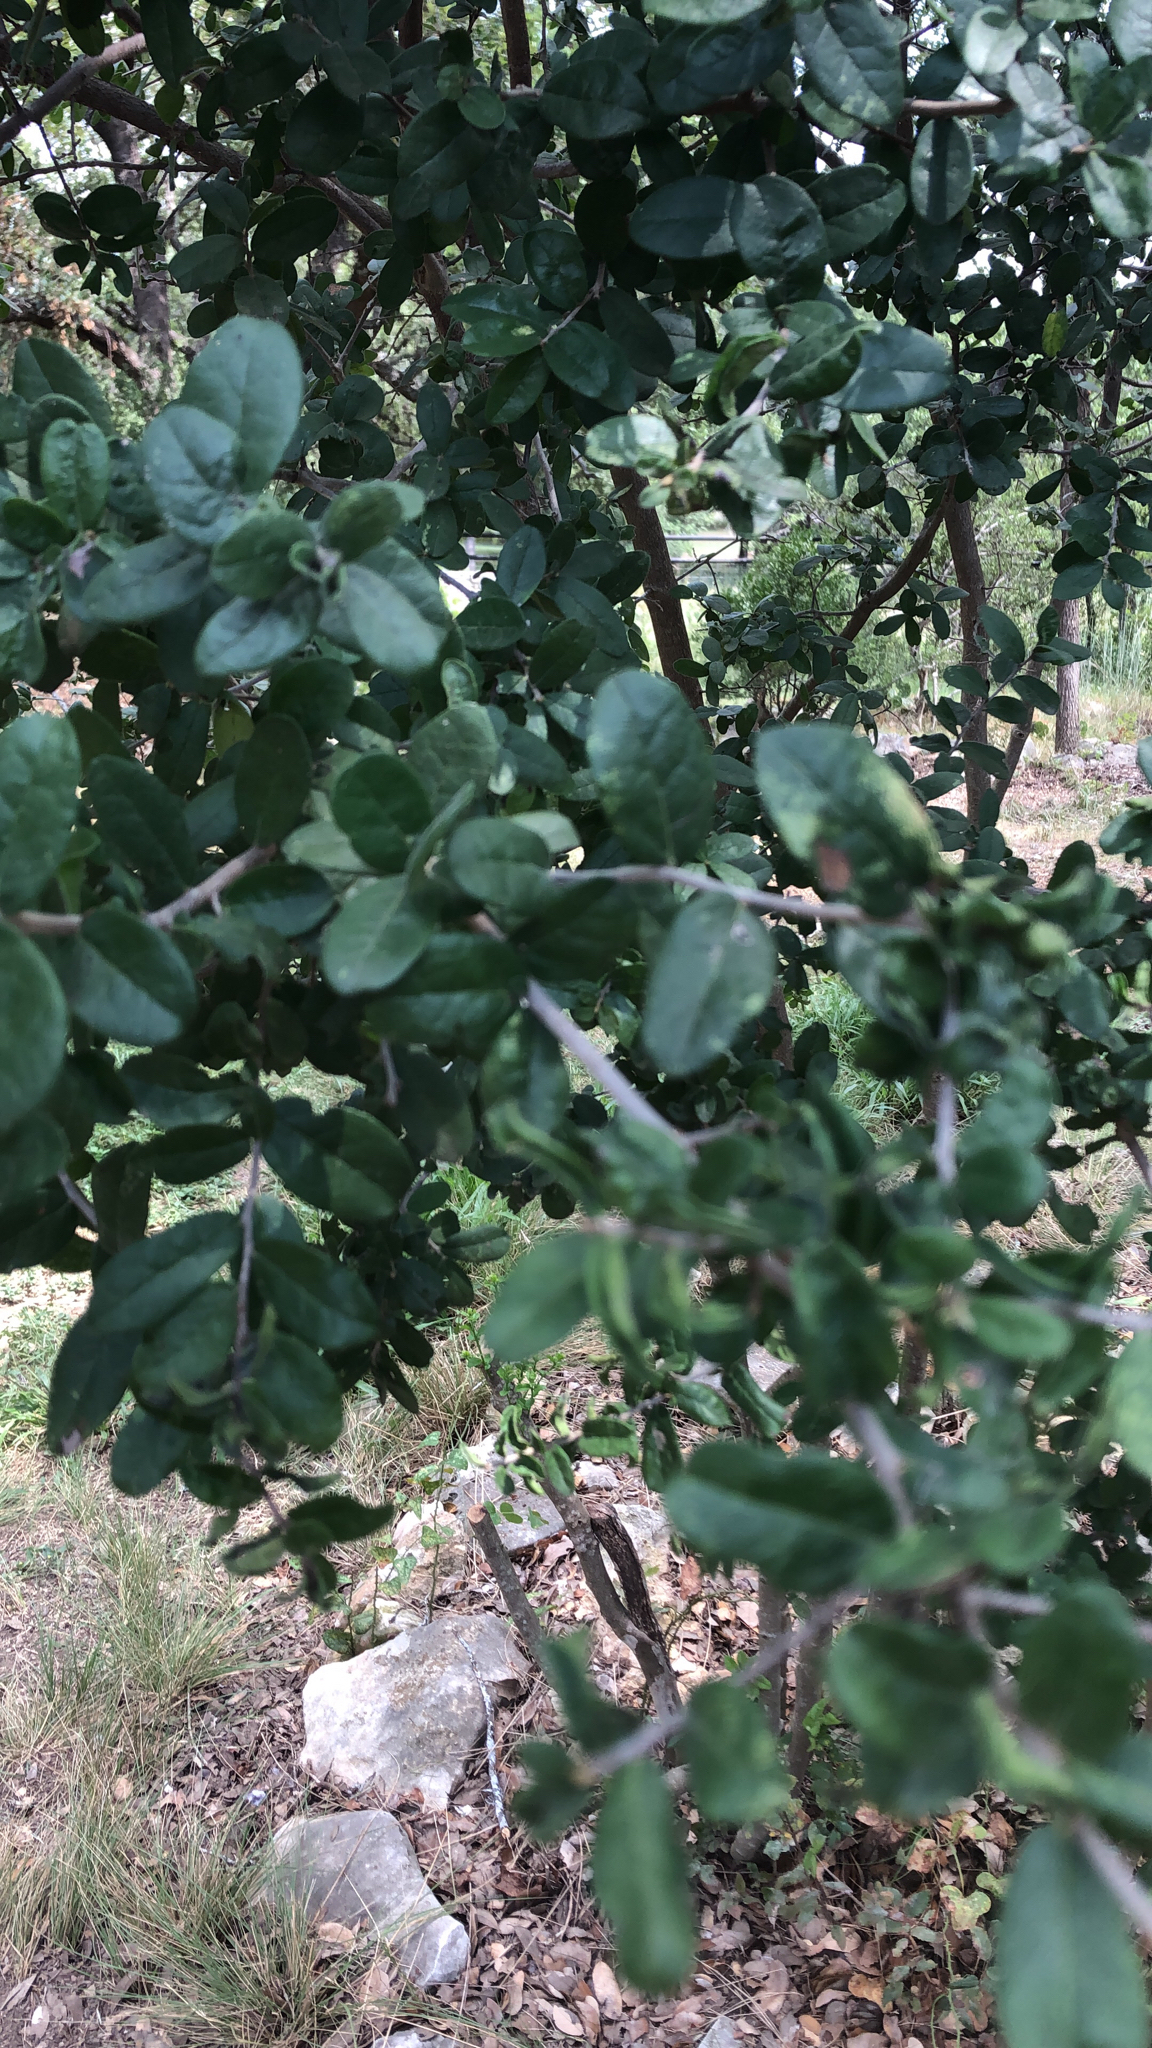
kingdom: Plantae
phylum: Tracheophyta
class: Magnoliopsida
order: Ericales
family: Ebenaceae
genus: Diospyros
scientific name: Diospyros texana
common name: Texas persimmon
